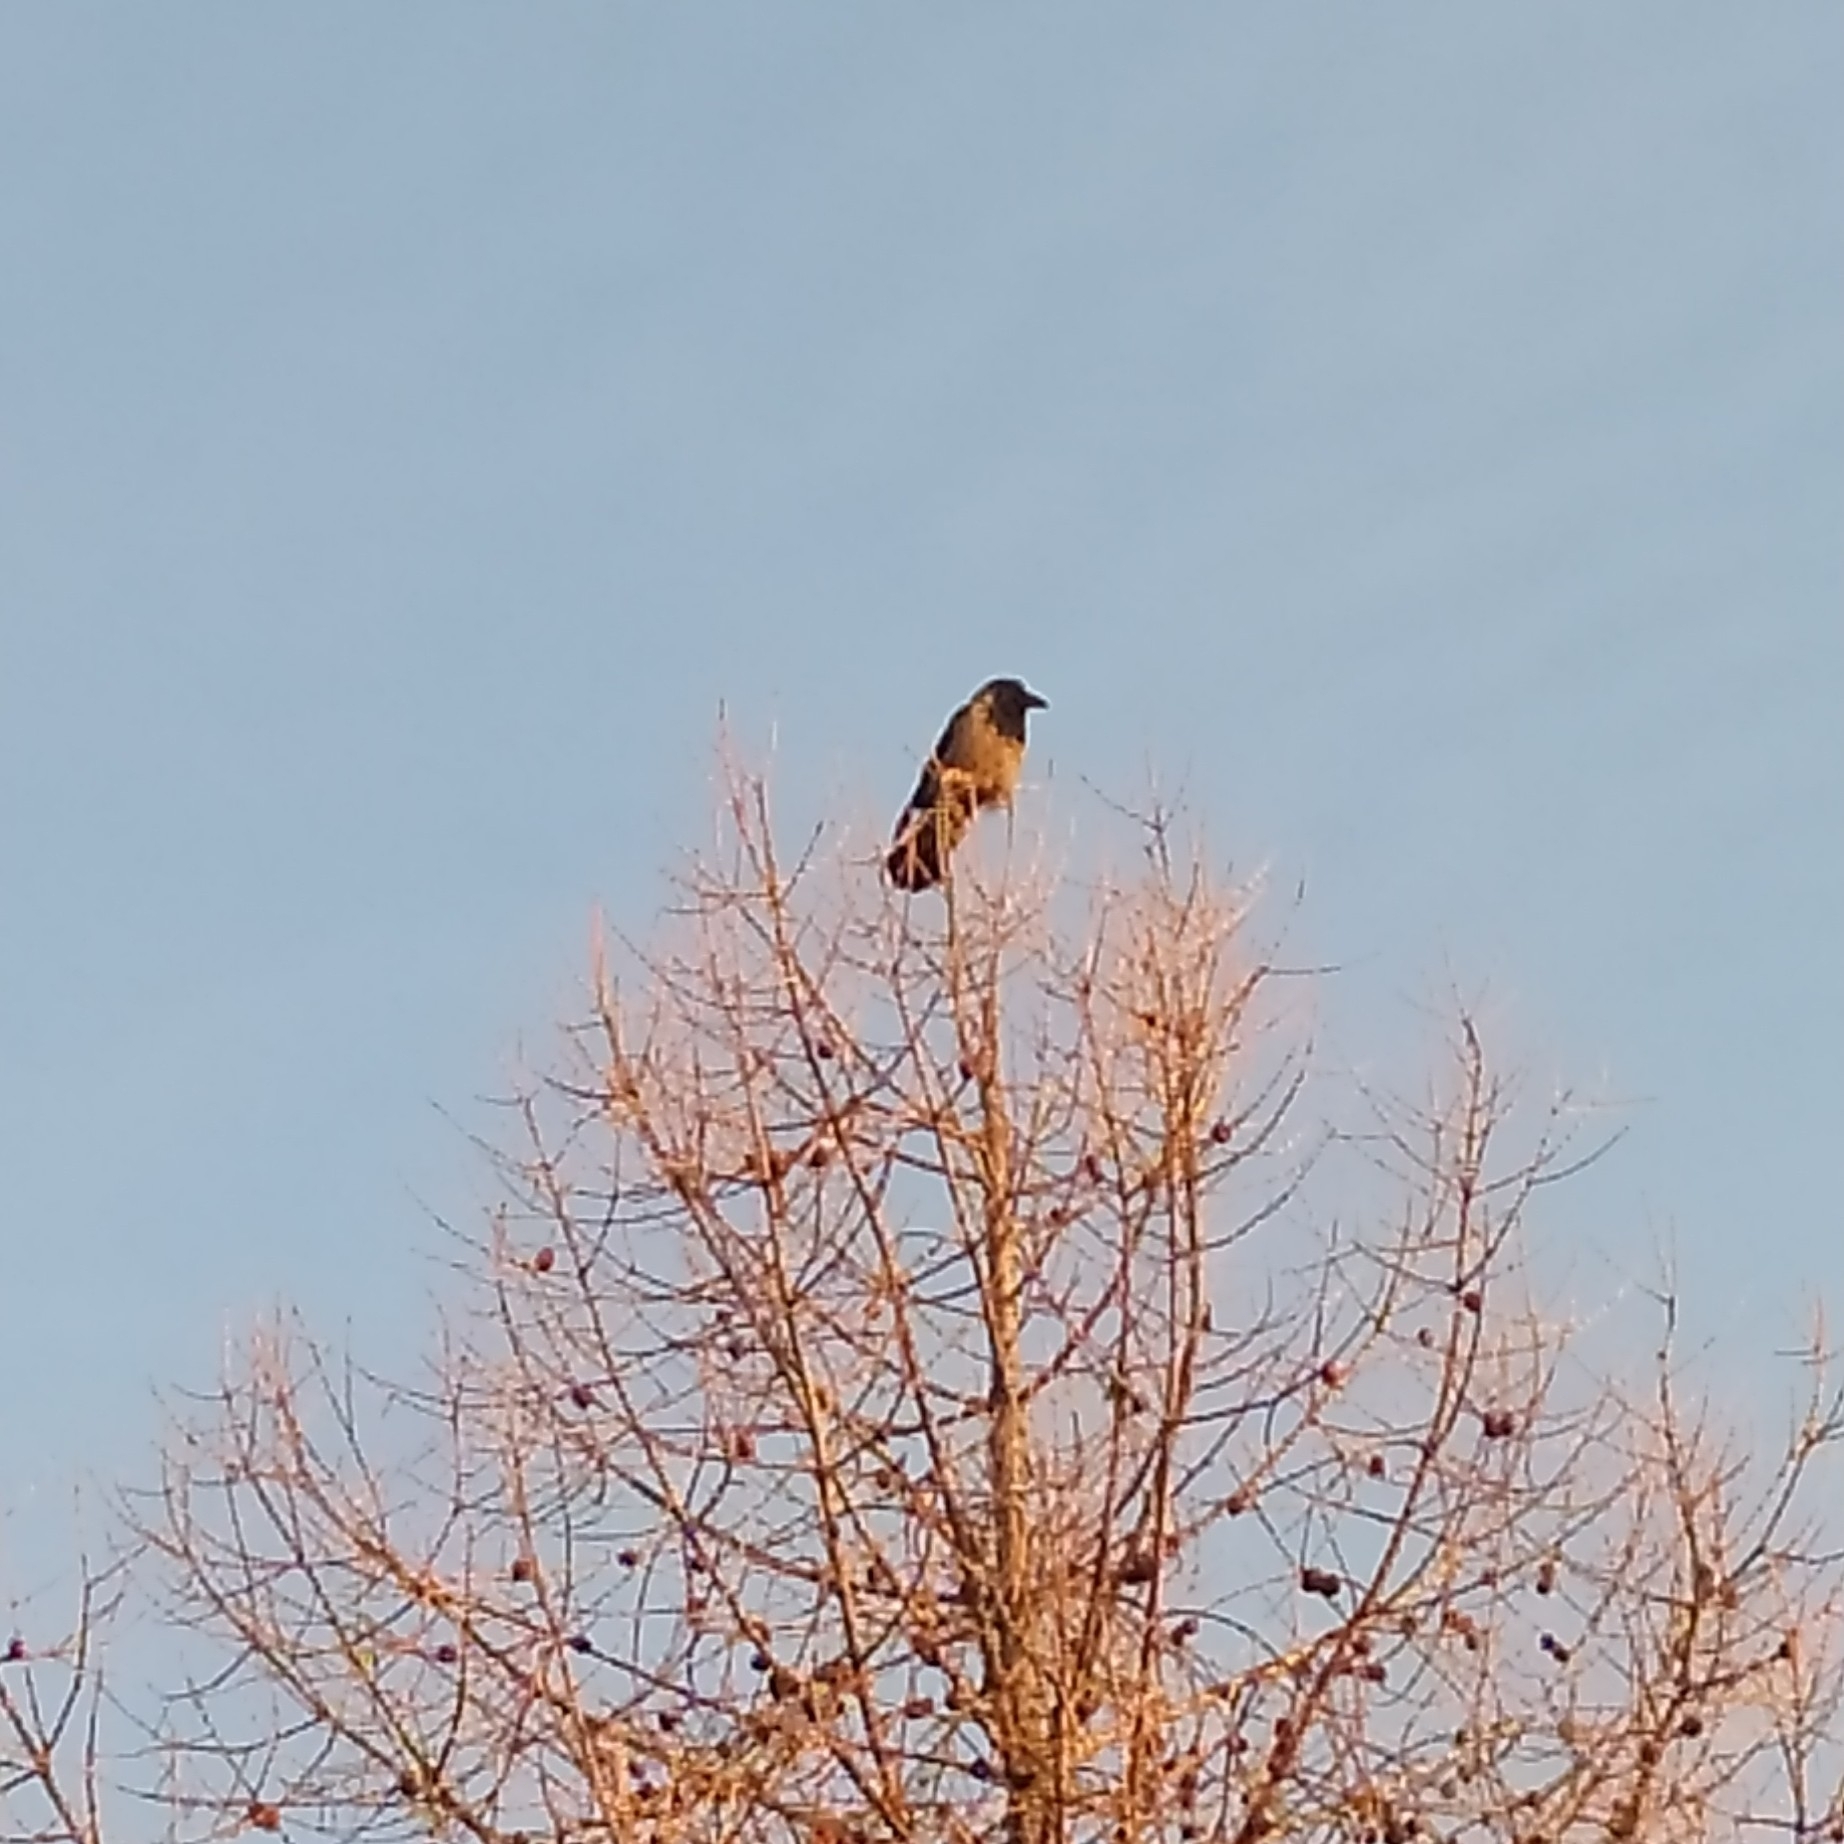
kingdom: Animalia
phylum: Chordata
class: Aves
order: Passeriformes
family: Corvidae
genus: Corvus
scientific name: Corvus cornix
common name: Hooded crow
